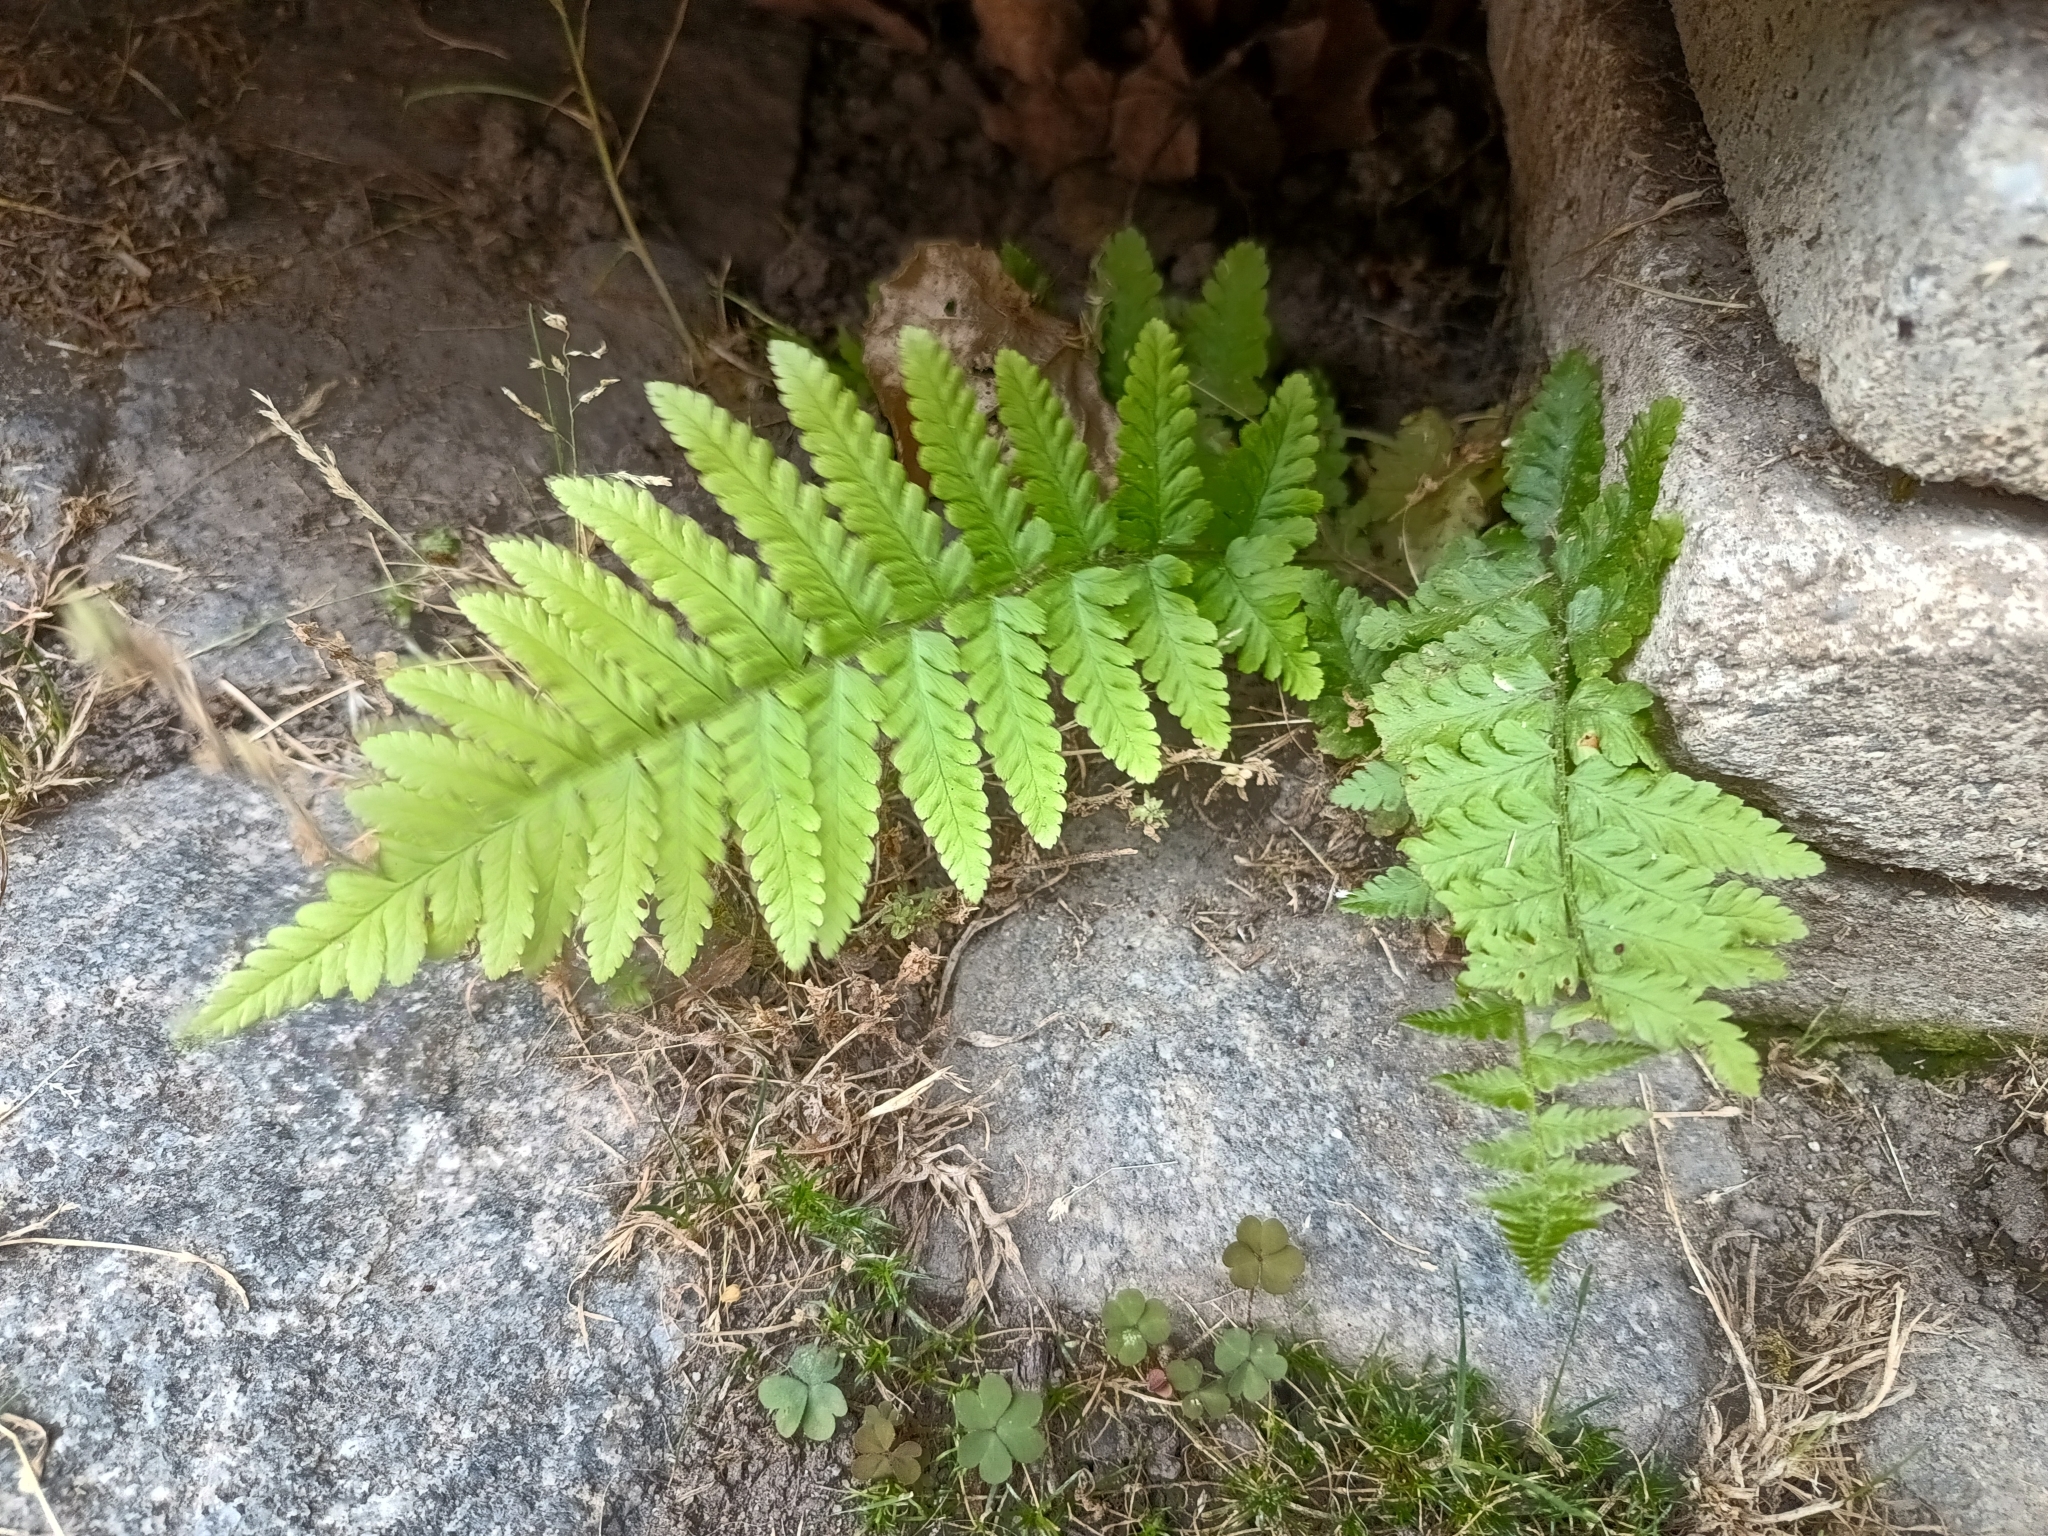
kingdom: Plantae
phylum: Tracheophyta
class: Polypodiopsida
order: Polypodiales
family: Dryopteridaceae
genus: Dryopteris
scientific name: Dryopteris filix-mas
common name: Male fern
